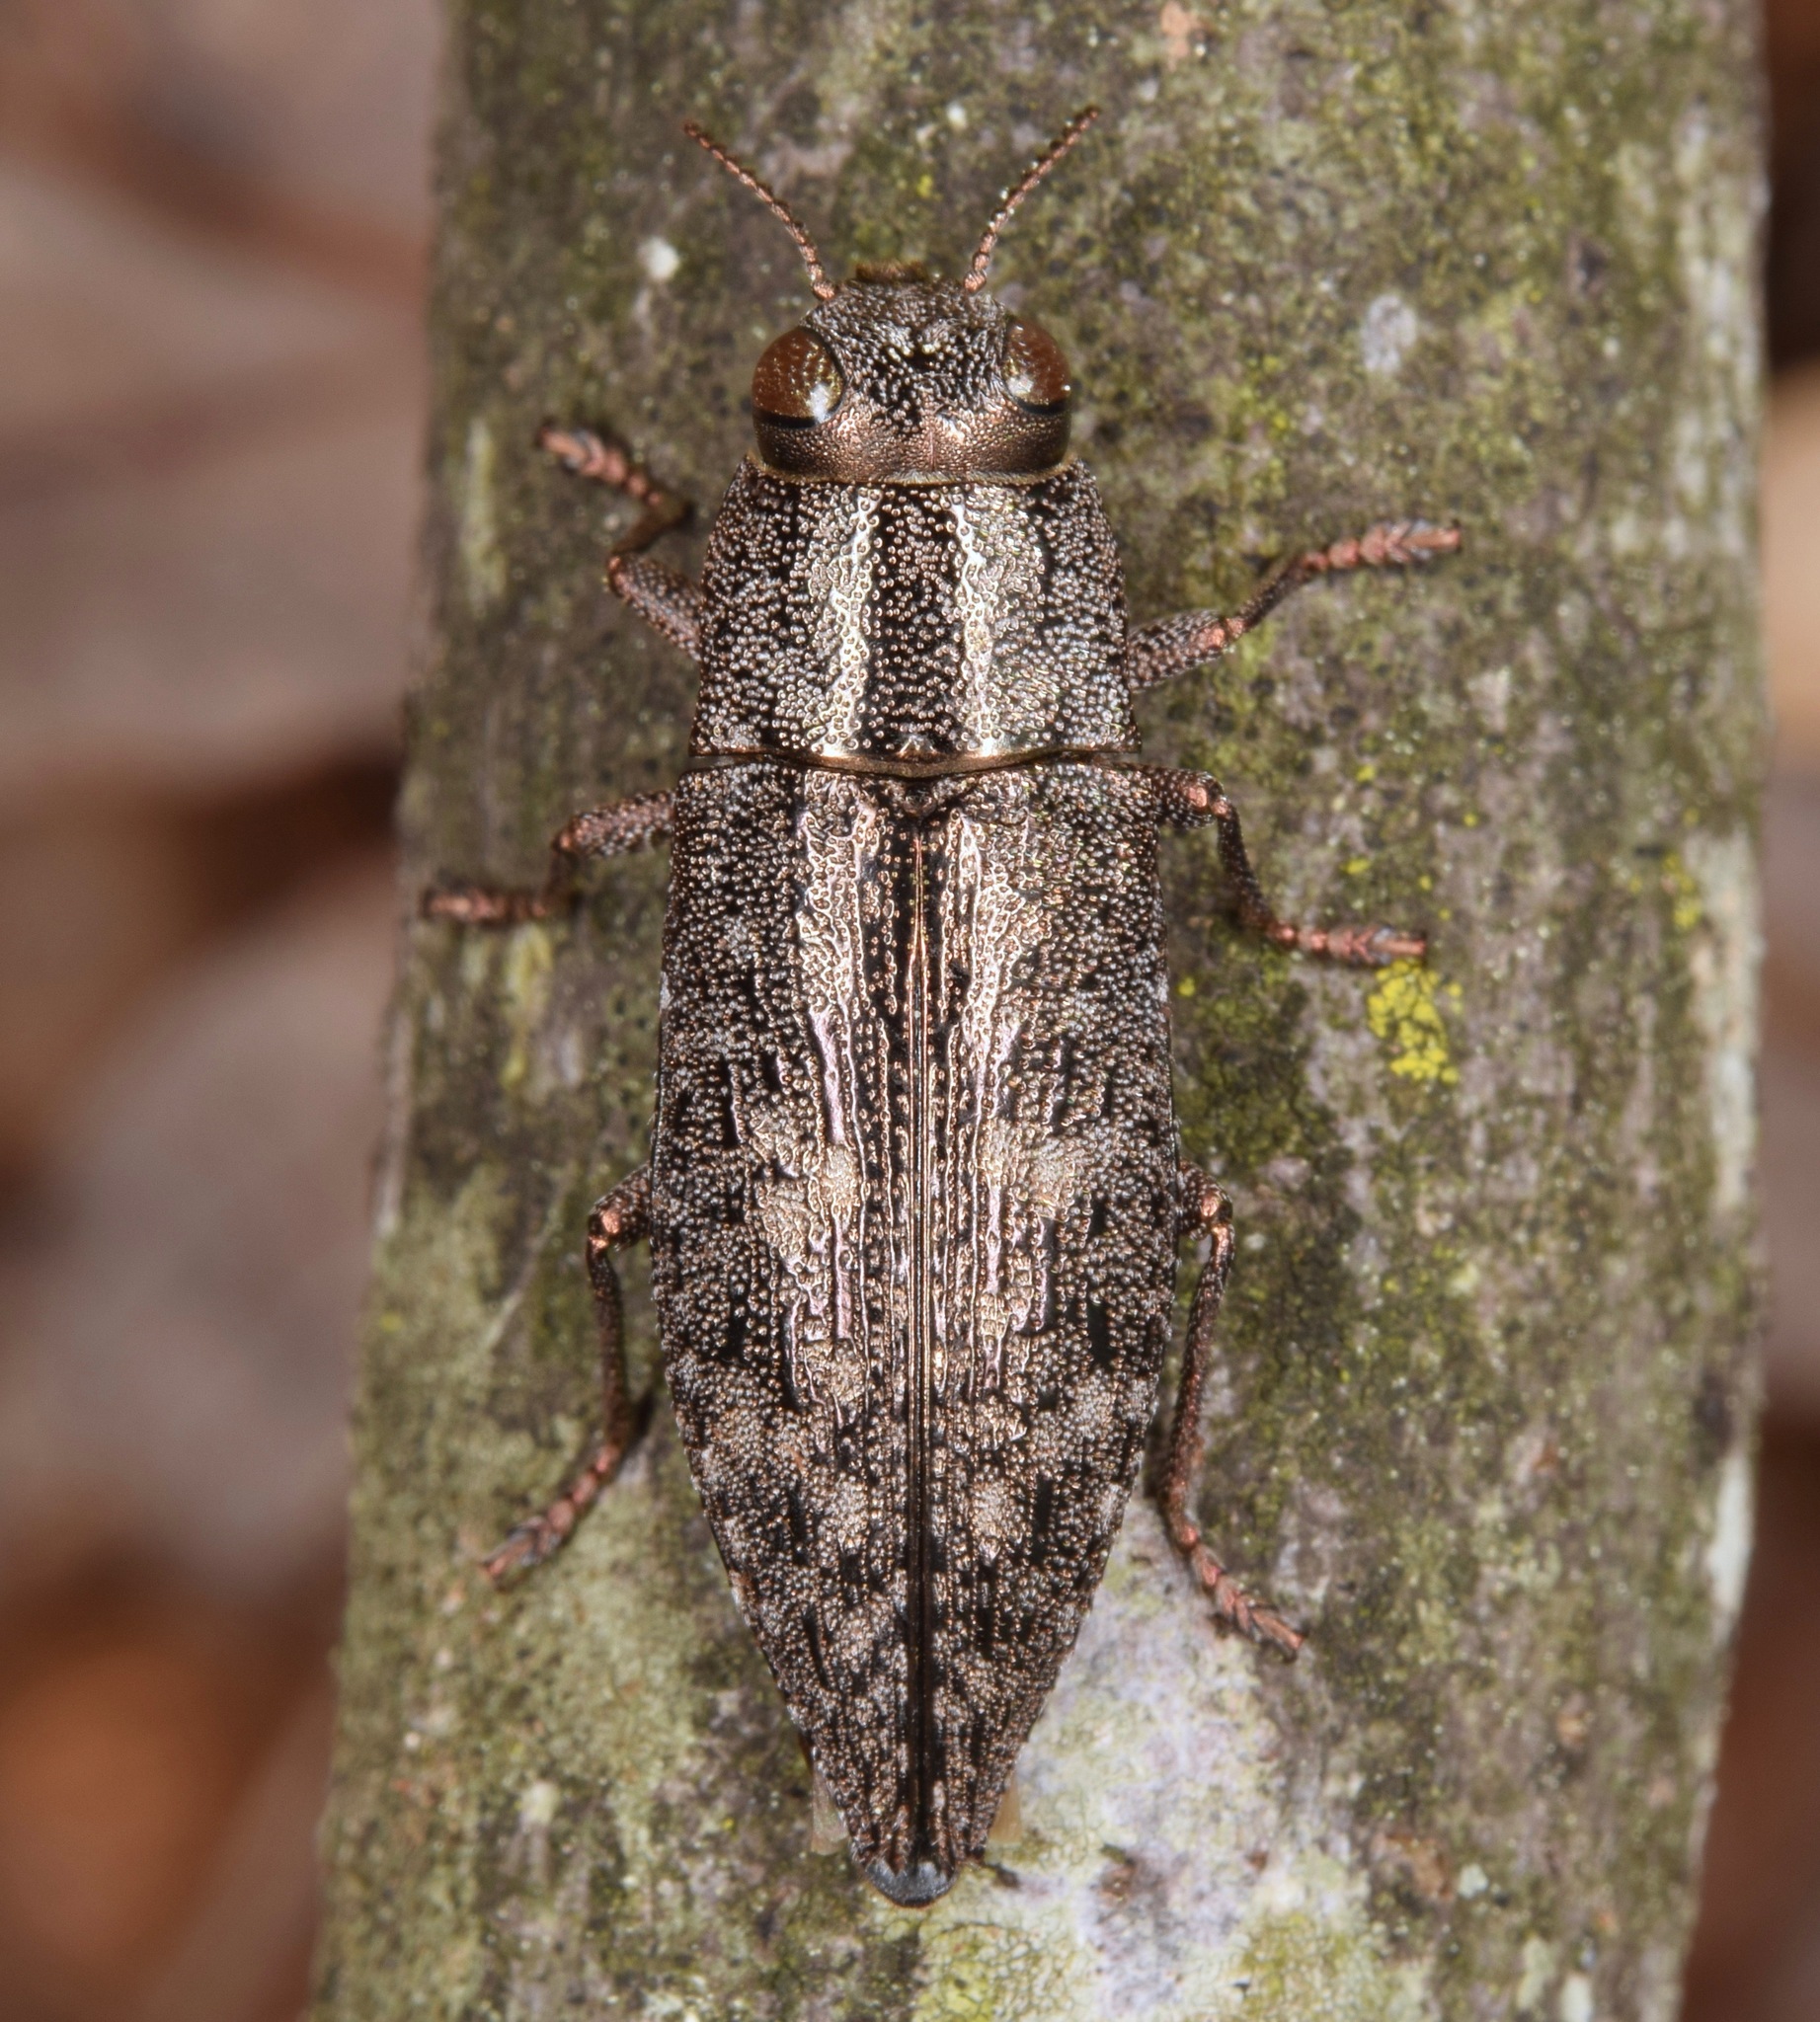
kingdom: Animalia
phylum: Arthropoda
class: Insecta
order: Coleoptera
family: Buprestidae
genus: Dicerca
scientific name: Dicerca lurida
